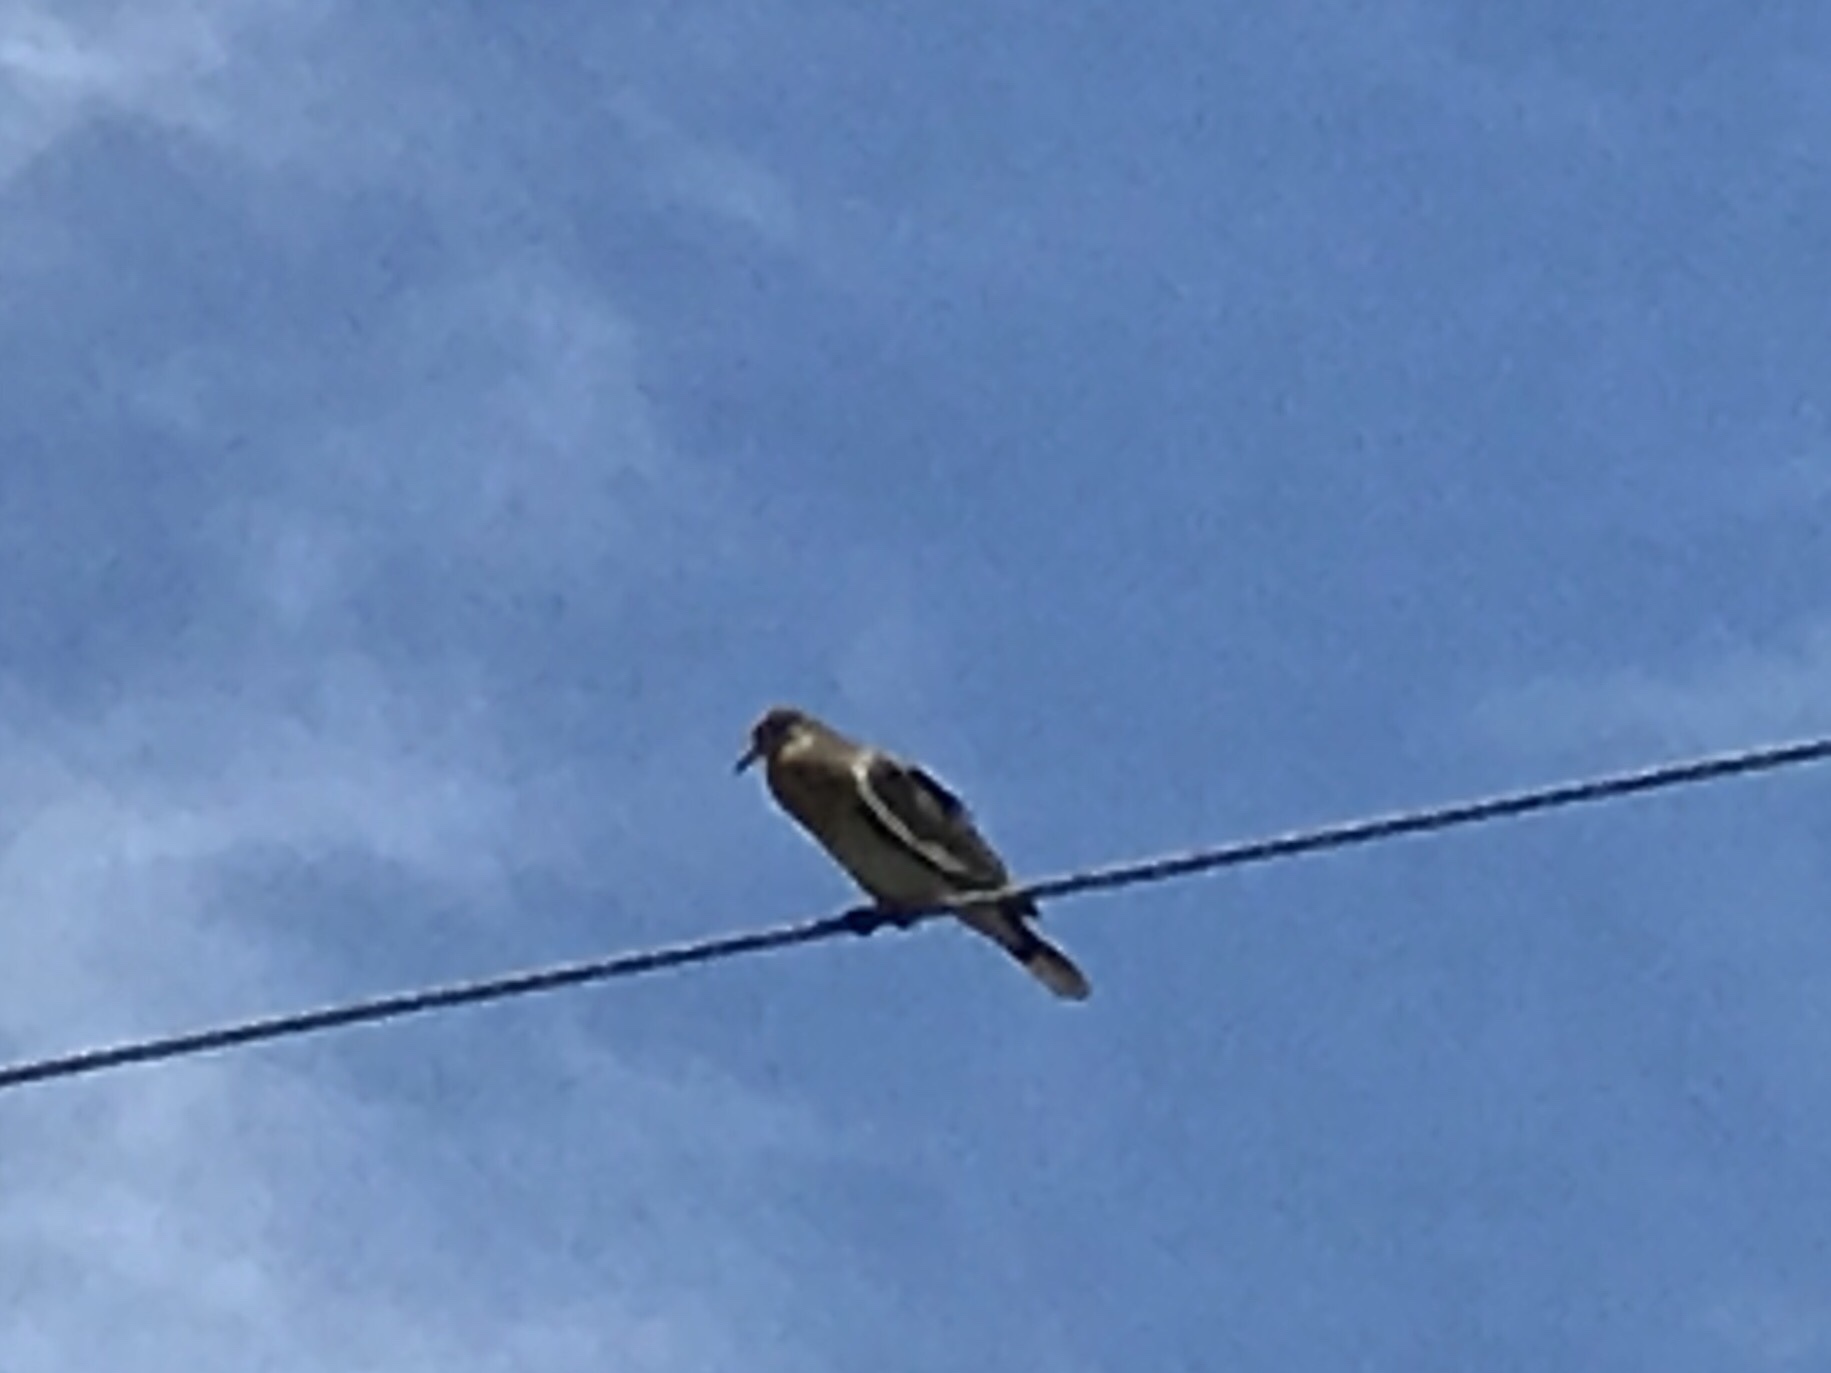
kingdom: Animalia
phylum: Chordata
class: Aves
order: Columbiformes
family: Columbidae
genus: Zenaida
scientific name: Zenaida asiatica
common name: White-winged dove
